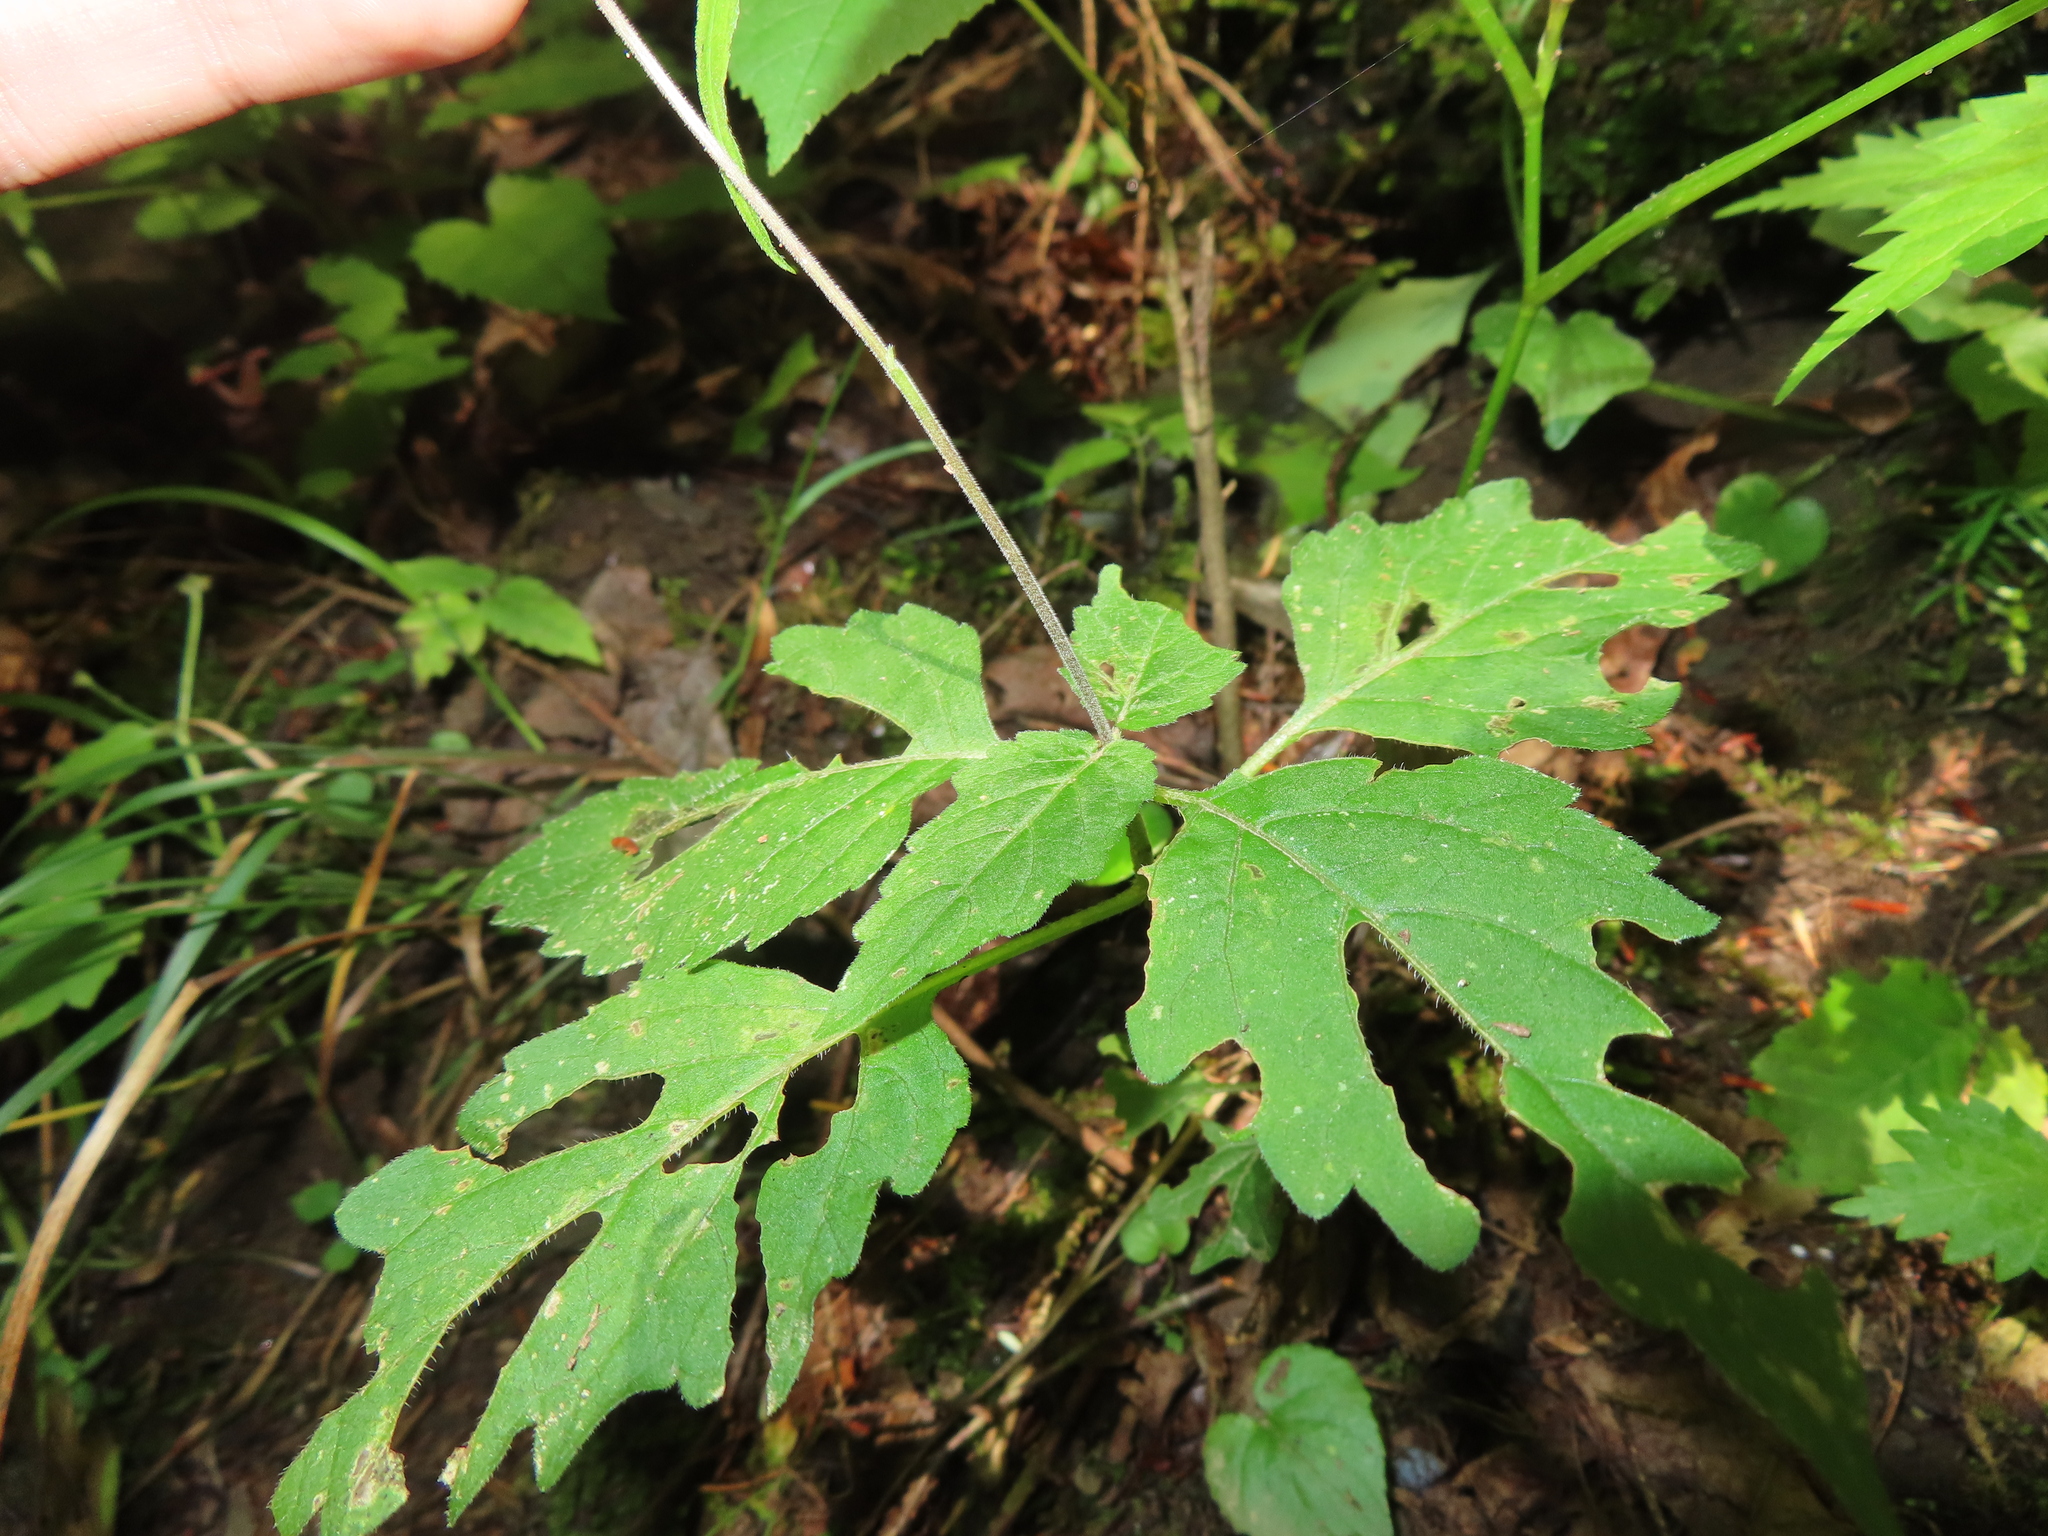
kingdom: Plantae
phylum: Tracheophyta
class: Magnoliopsida
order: Lamiales
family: Phrymaceae
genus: Phryma
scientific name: Phryma leptostachya
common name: American lopseed
